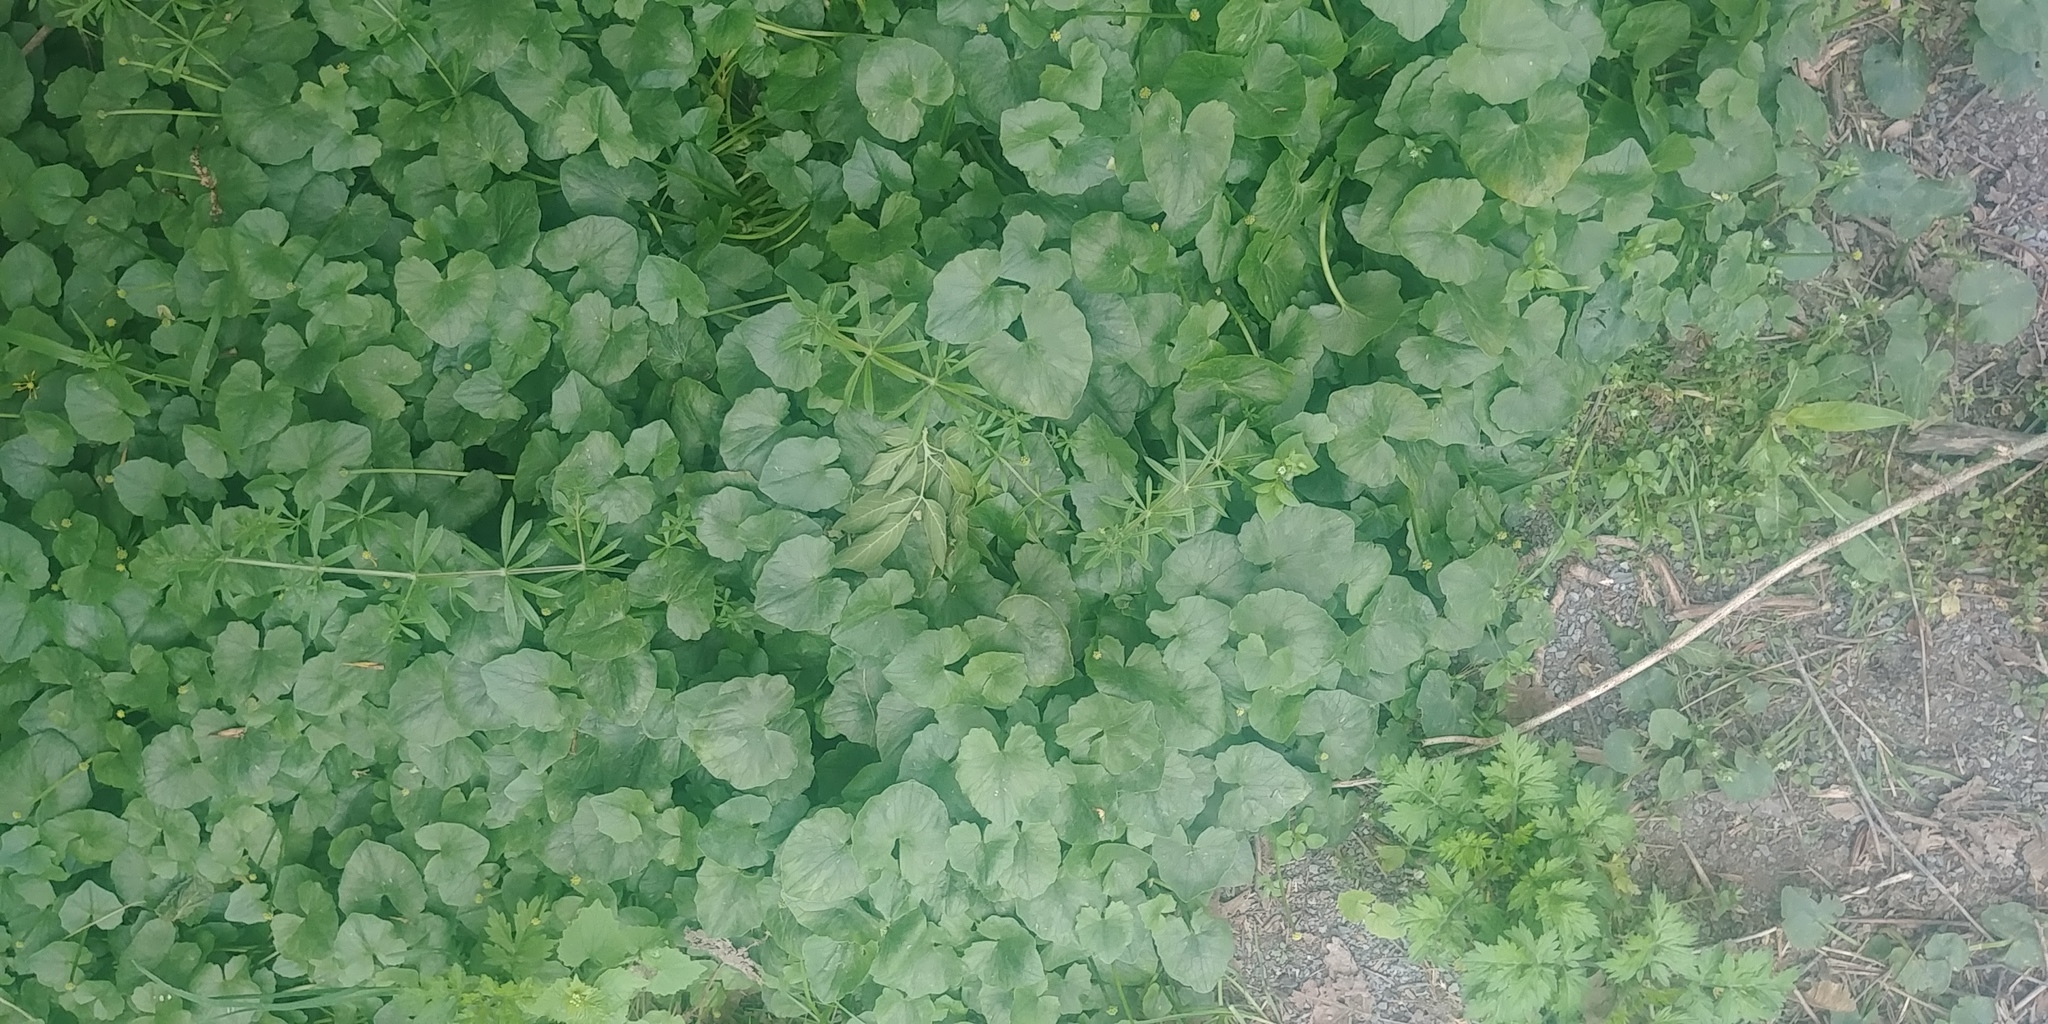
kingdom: Plantae
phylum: Tracheophyta
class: Magnoliopsida
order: Ranunculales
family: Ranunculaceae
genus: Ficaria
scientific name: Ficaria verna
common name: Lesser celandine
